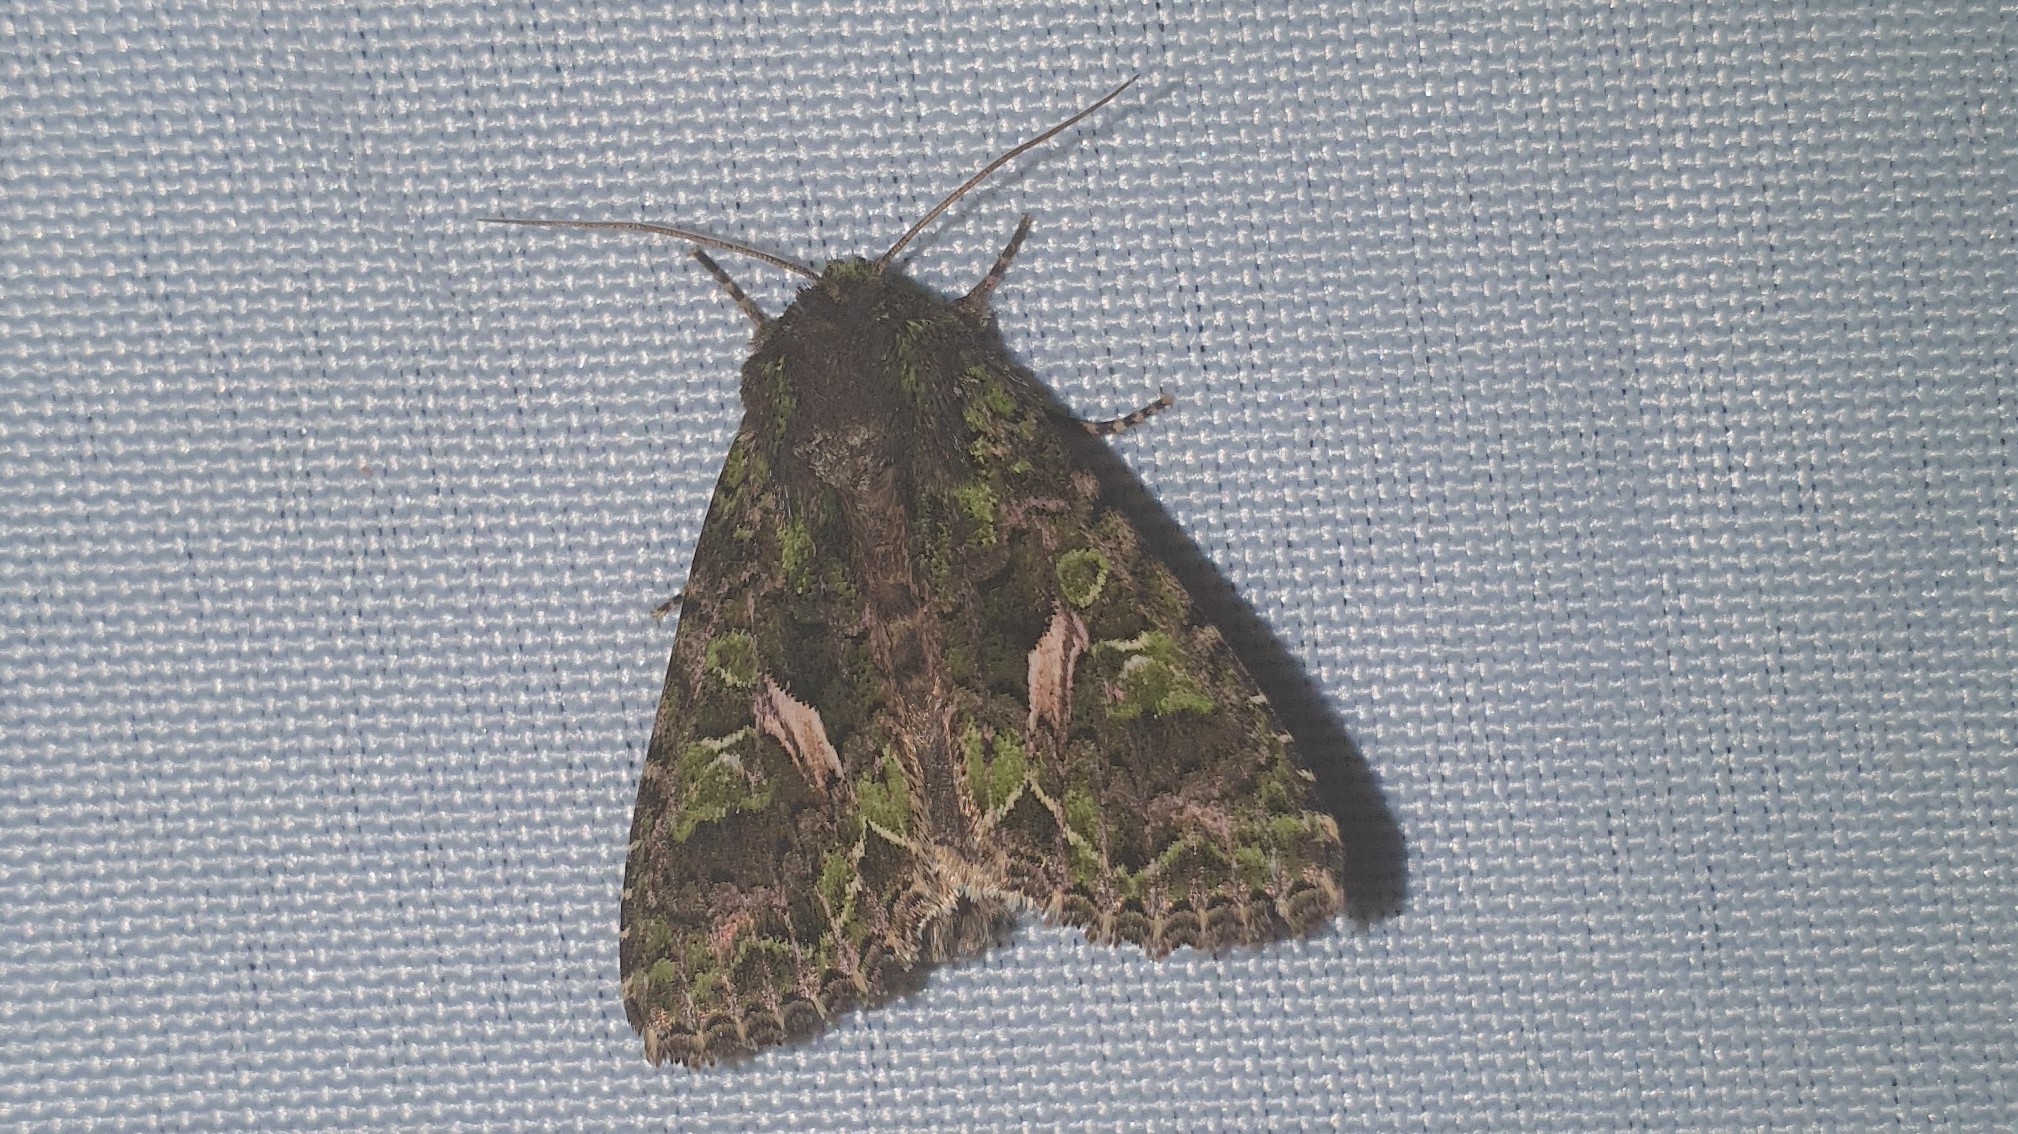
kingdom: Animalia
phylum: Arthropoda
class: Insecta
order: Lepidoptera
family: Noctuidae
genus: Trachea
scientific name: Trachea atriplicis
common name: Orache moth
